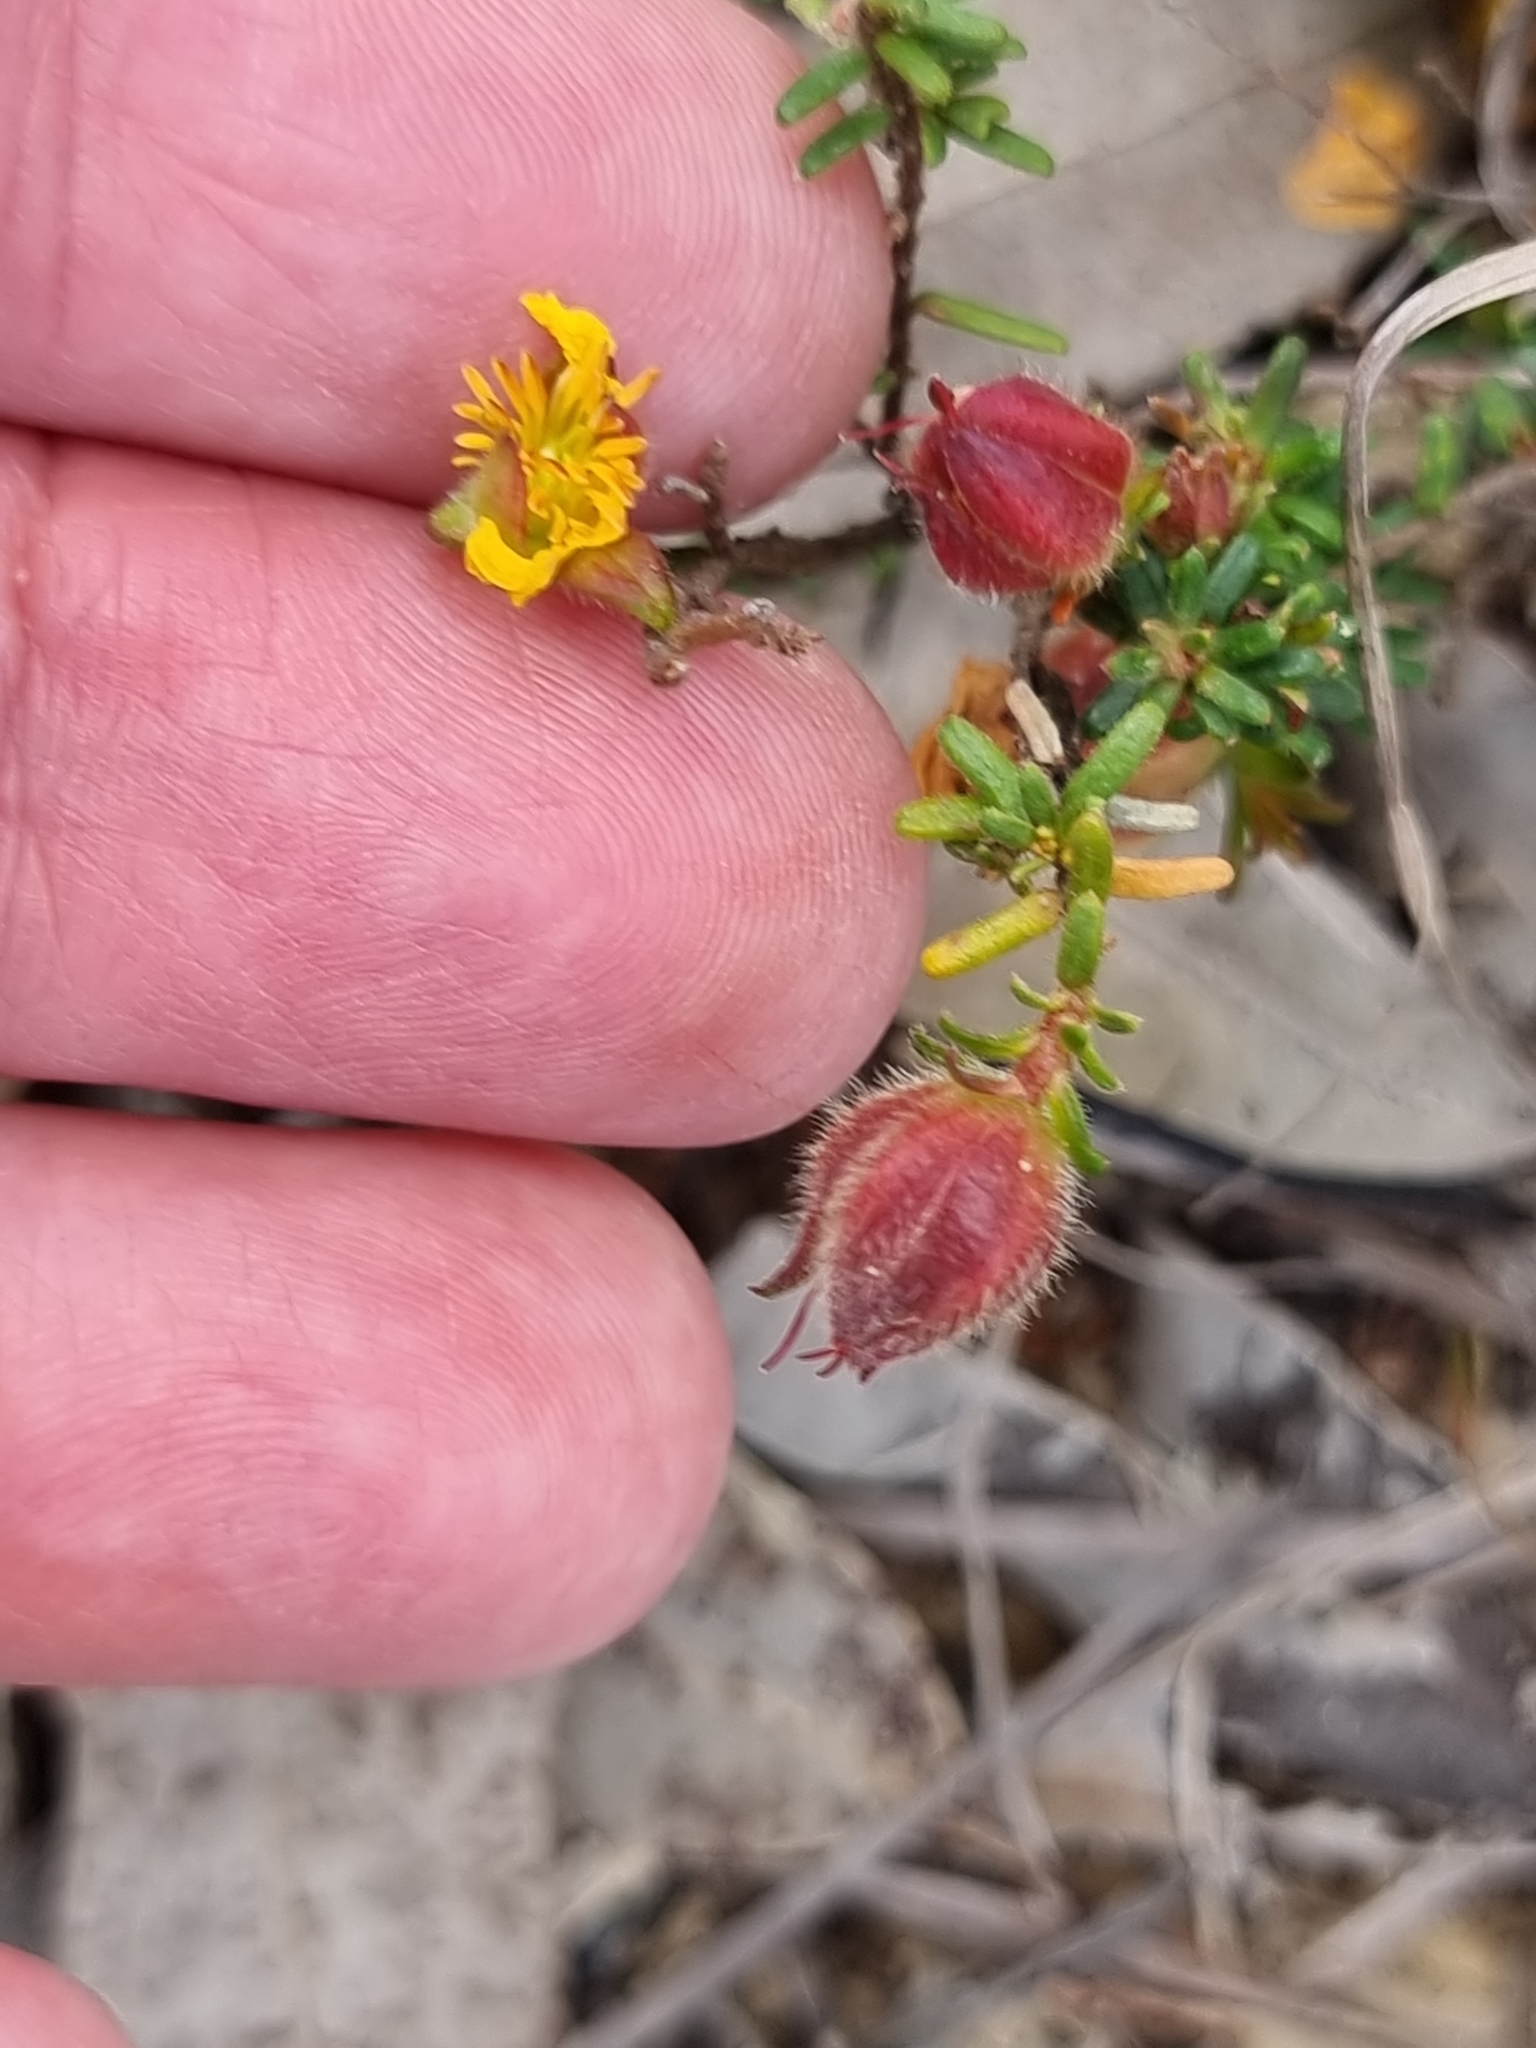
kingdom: Plantae
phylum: Tracheophyta
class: Magnoliopsida
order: Dilleniales
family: Dilleniaceae
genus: Hibbertia
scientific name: Hibbertia vestita
